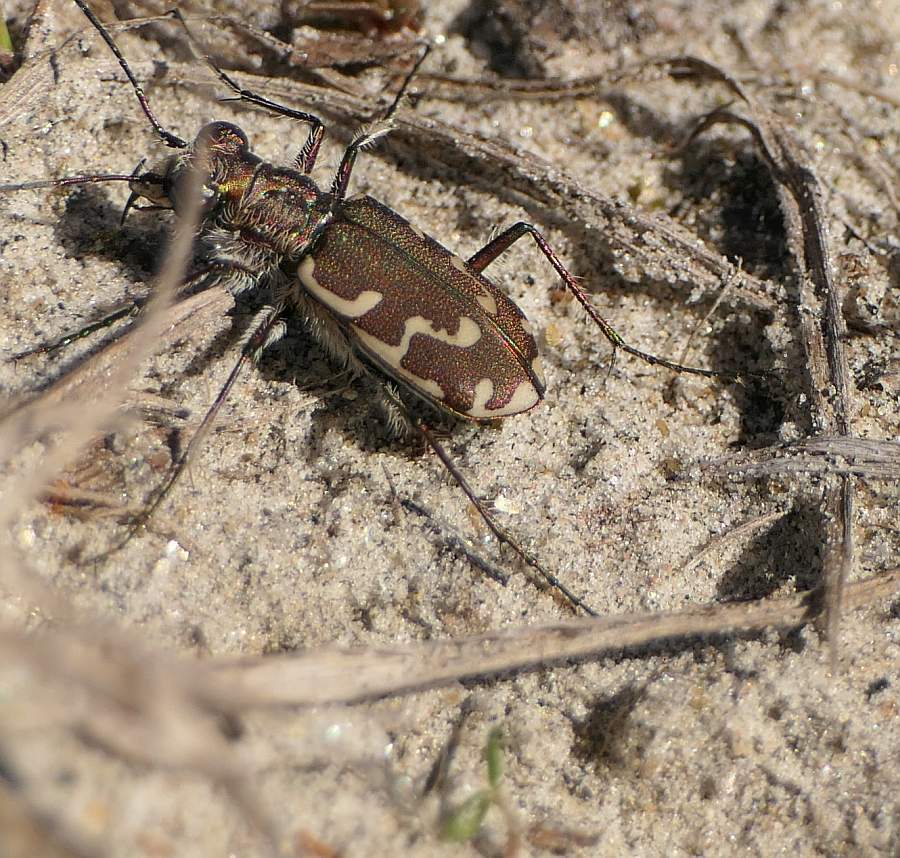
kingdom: Animalia
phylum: Arthropoda
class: Insecta
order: Coleoptera
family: Carabidae
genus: Cicindela
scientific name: Cicindela repanda
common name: Bronzed tiger beetle
